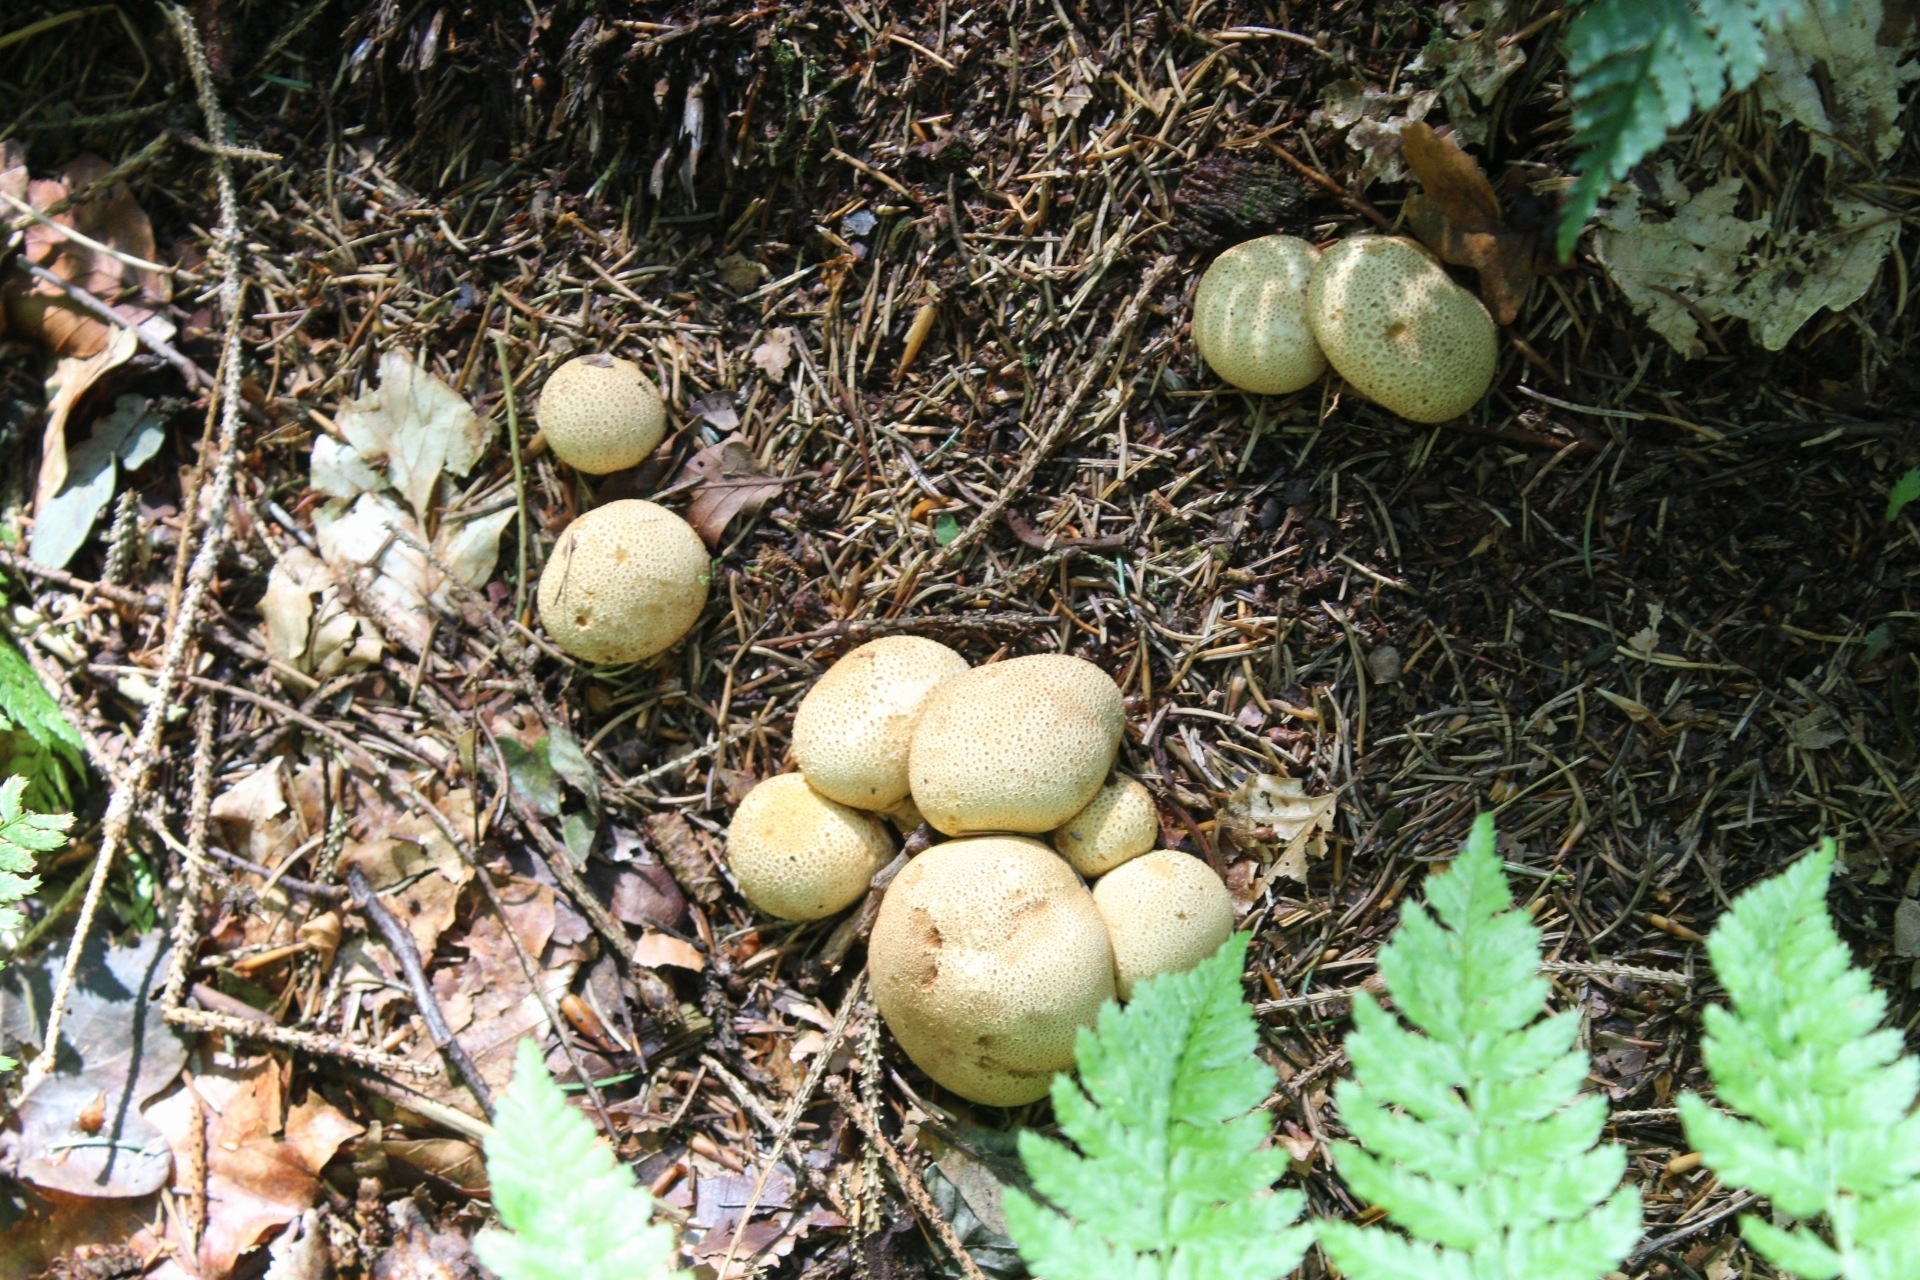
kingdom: Fungi
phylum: Basidiomycota
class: Agaricomycetes
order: Boletales
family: Sclerodermataceae
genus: Scleroderma
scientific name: Scleroderma citrinum
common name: Common earthball
